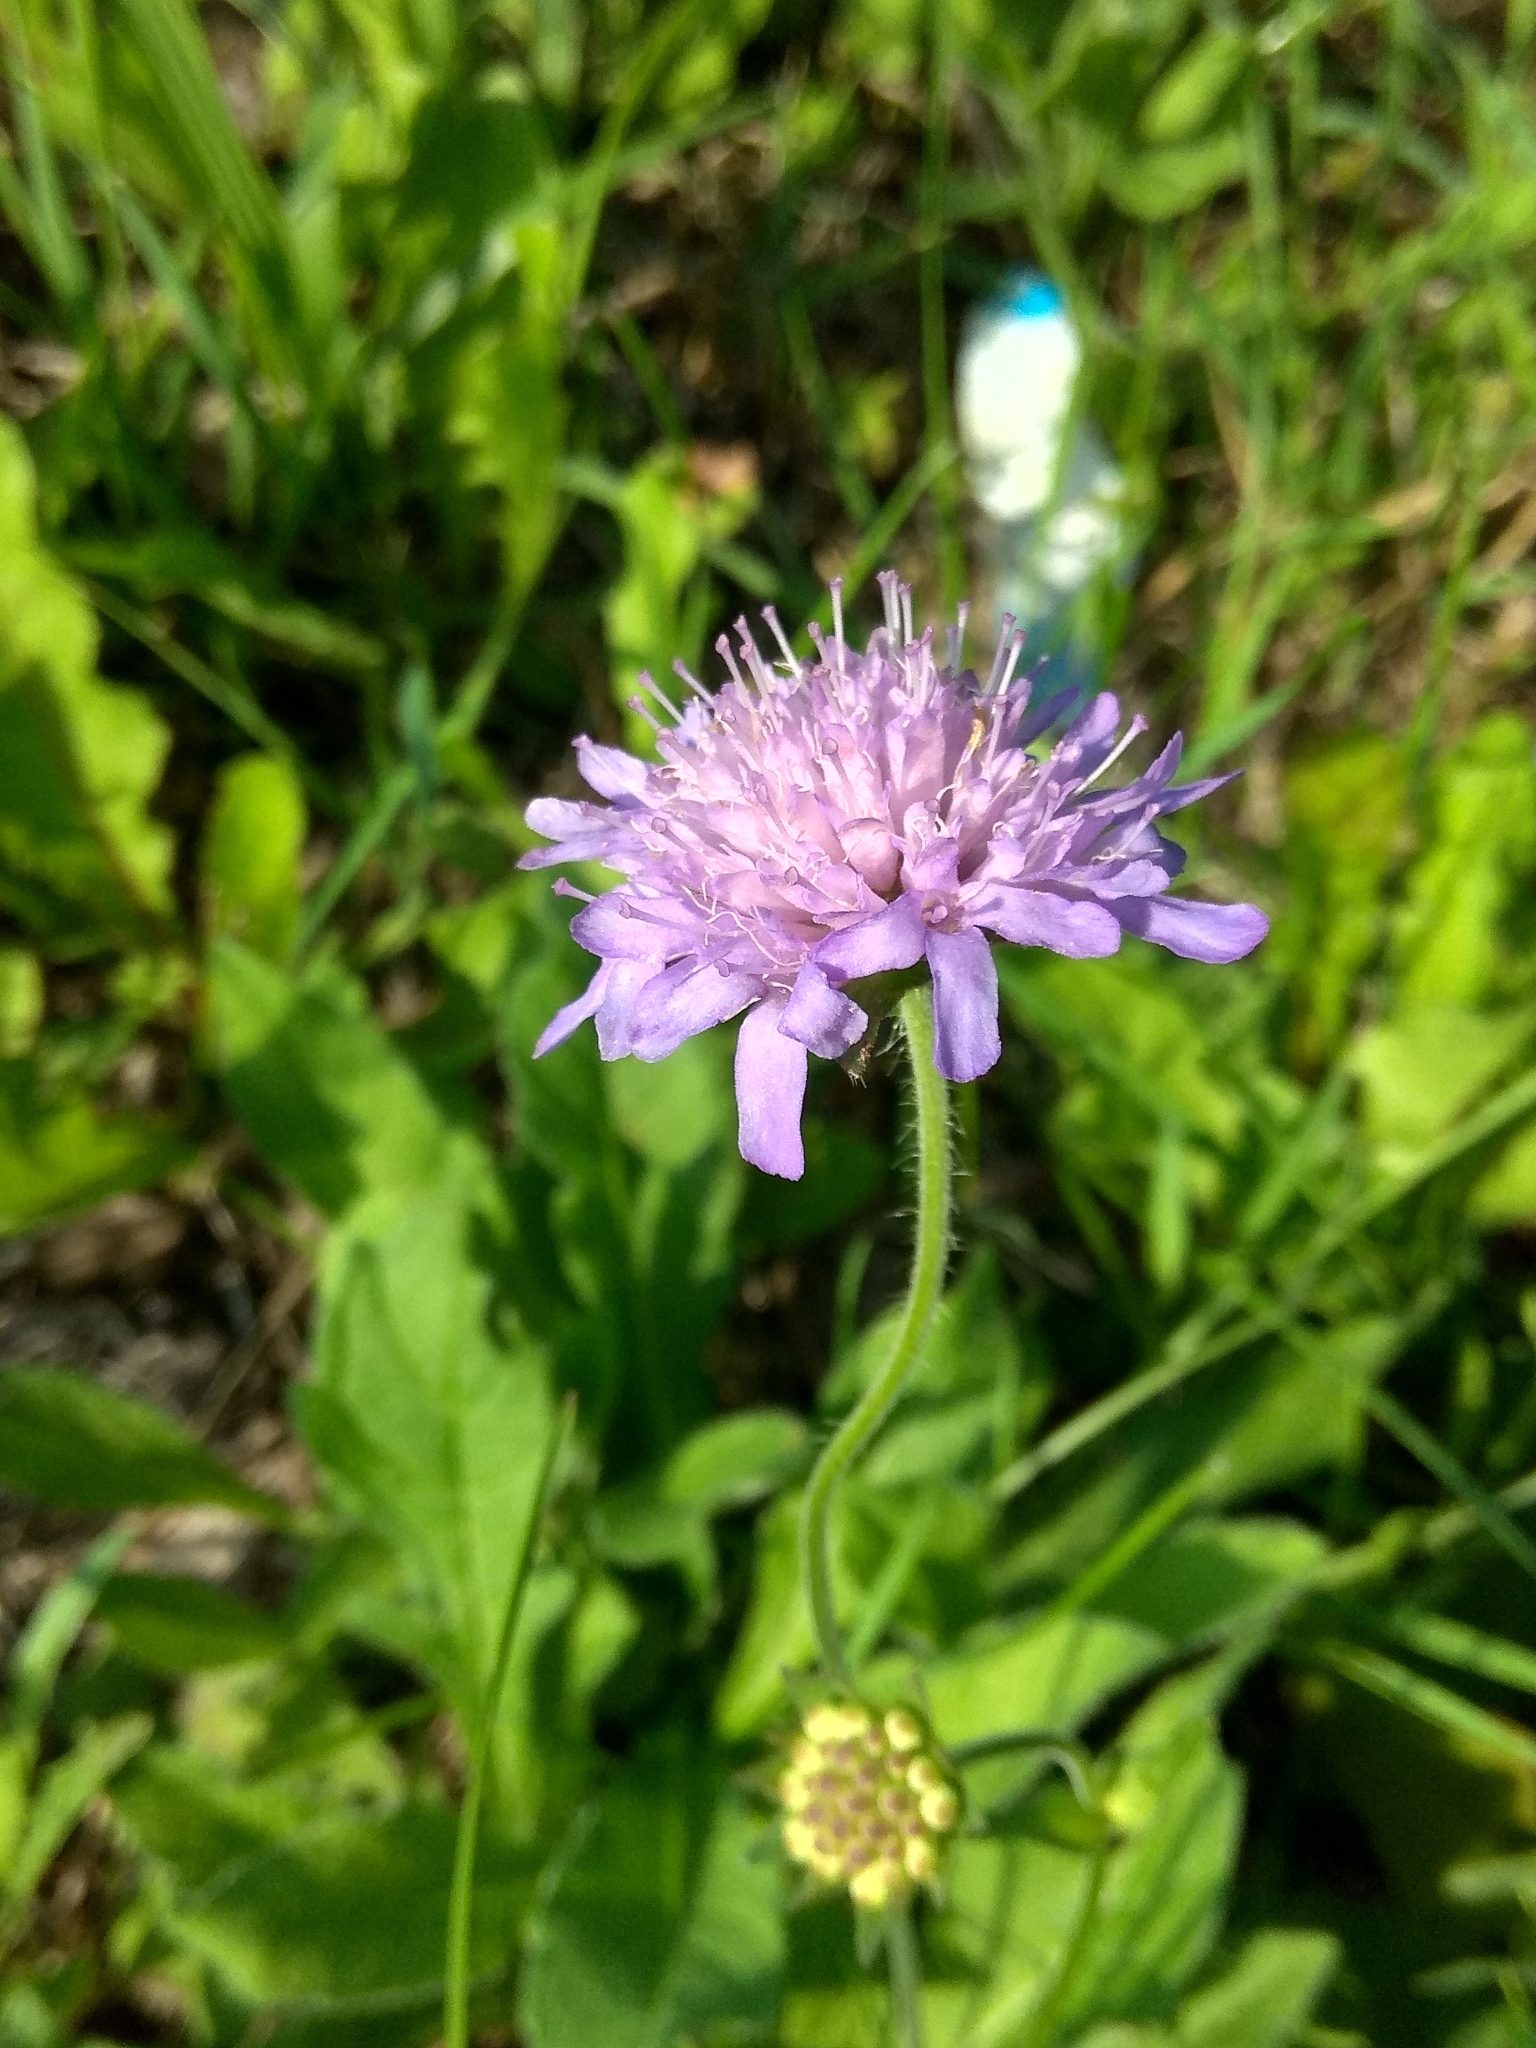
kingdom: Plantae
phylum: Tracheophyta
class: Magnoliopsida
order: Dipsacales
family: Caprifoliaceae
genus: Knautia
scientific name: Knautia arvensis
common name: Field scabiosa
